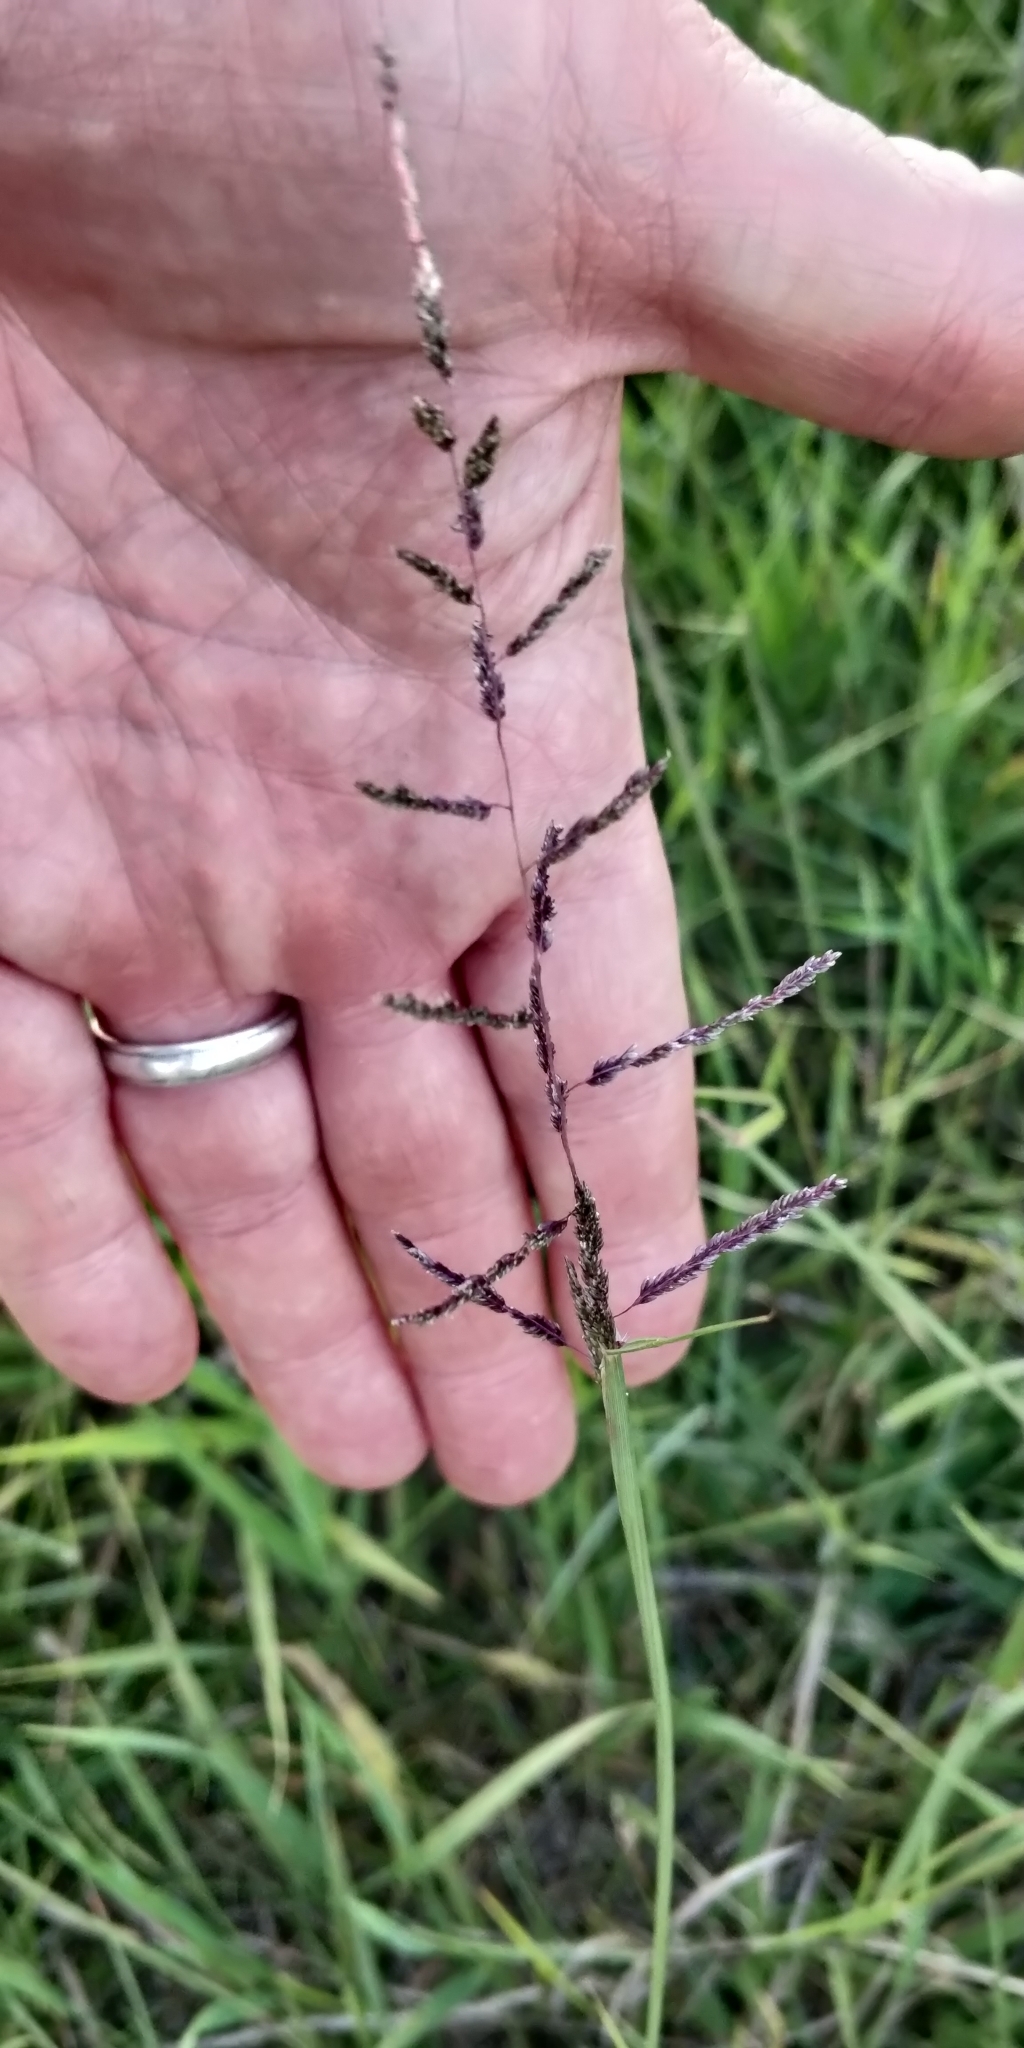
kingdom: Plantae
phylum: Tracheophyta
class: Liliopsida
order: Poales
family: Poaceae
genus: Sporobolus
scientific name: Sporobolus cryptandrus
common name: Sand dropseed
